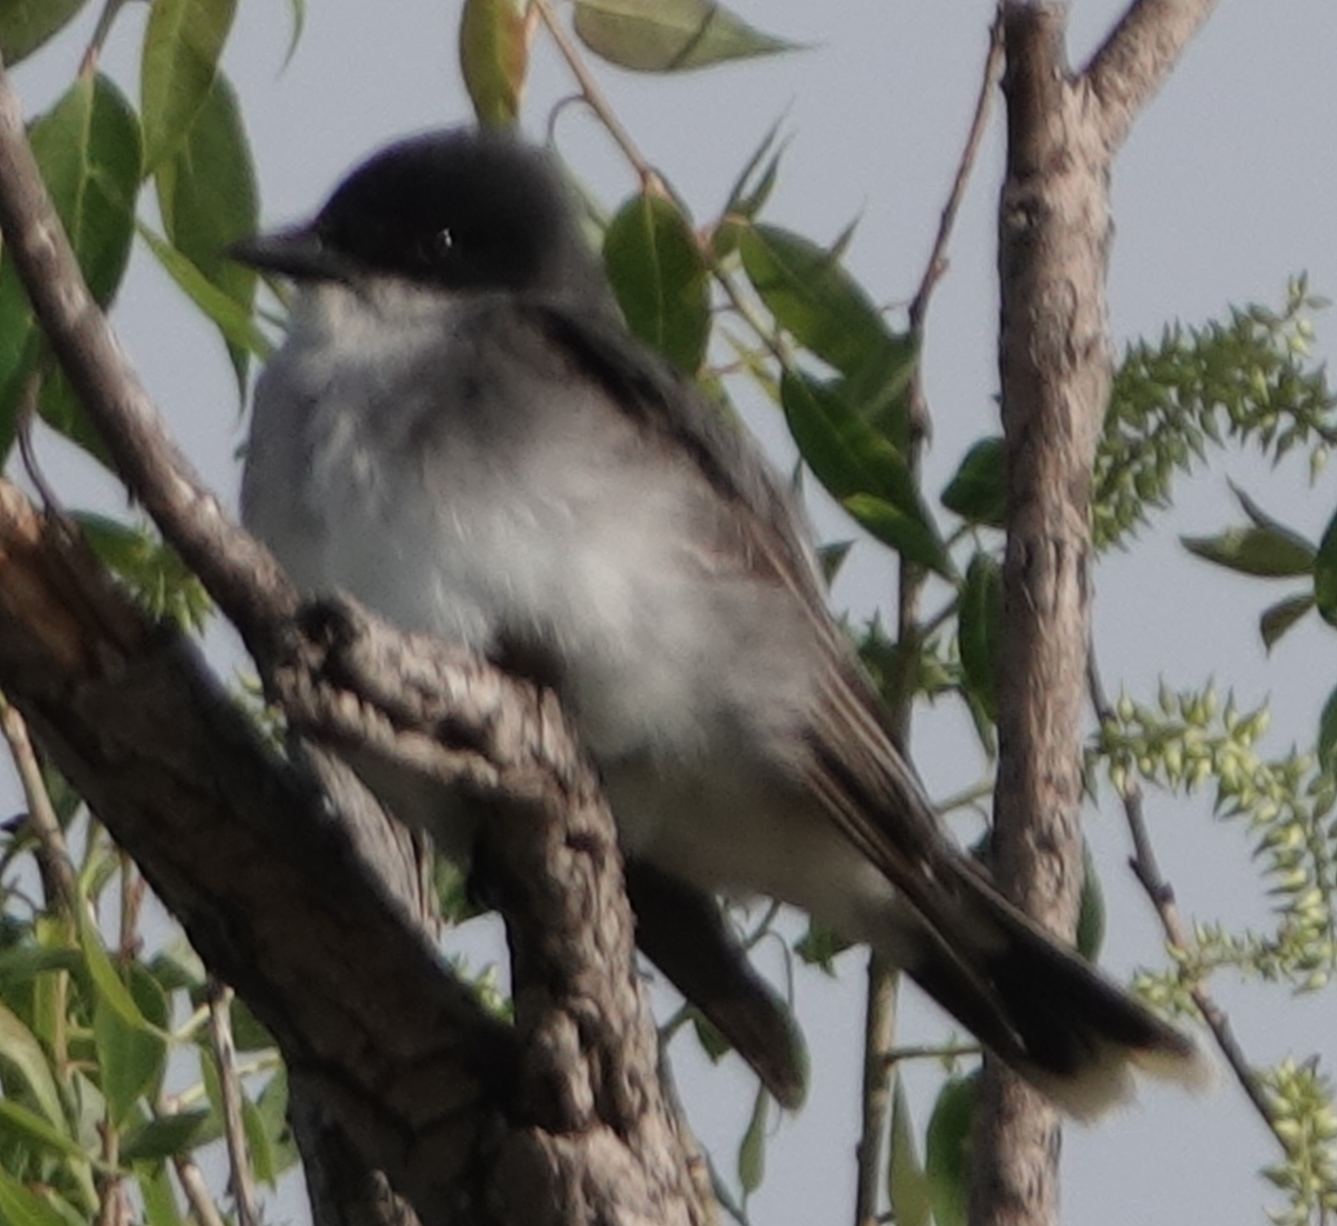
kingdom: Animalia
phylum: Chordata
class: Aves
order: Passeriformes
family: Tyrannidae
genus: Tyrannus
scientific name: Tyrannus tyrannus
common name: Eastern kingbird
